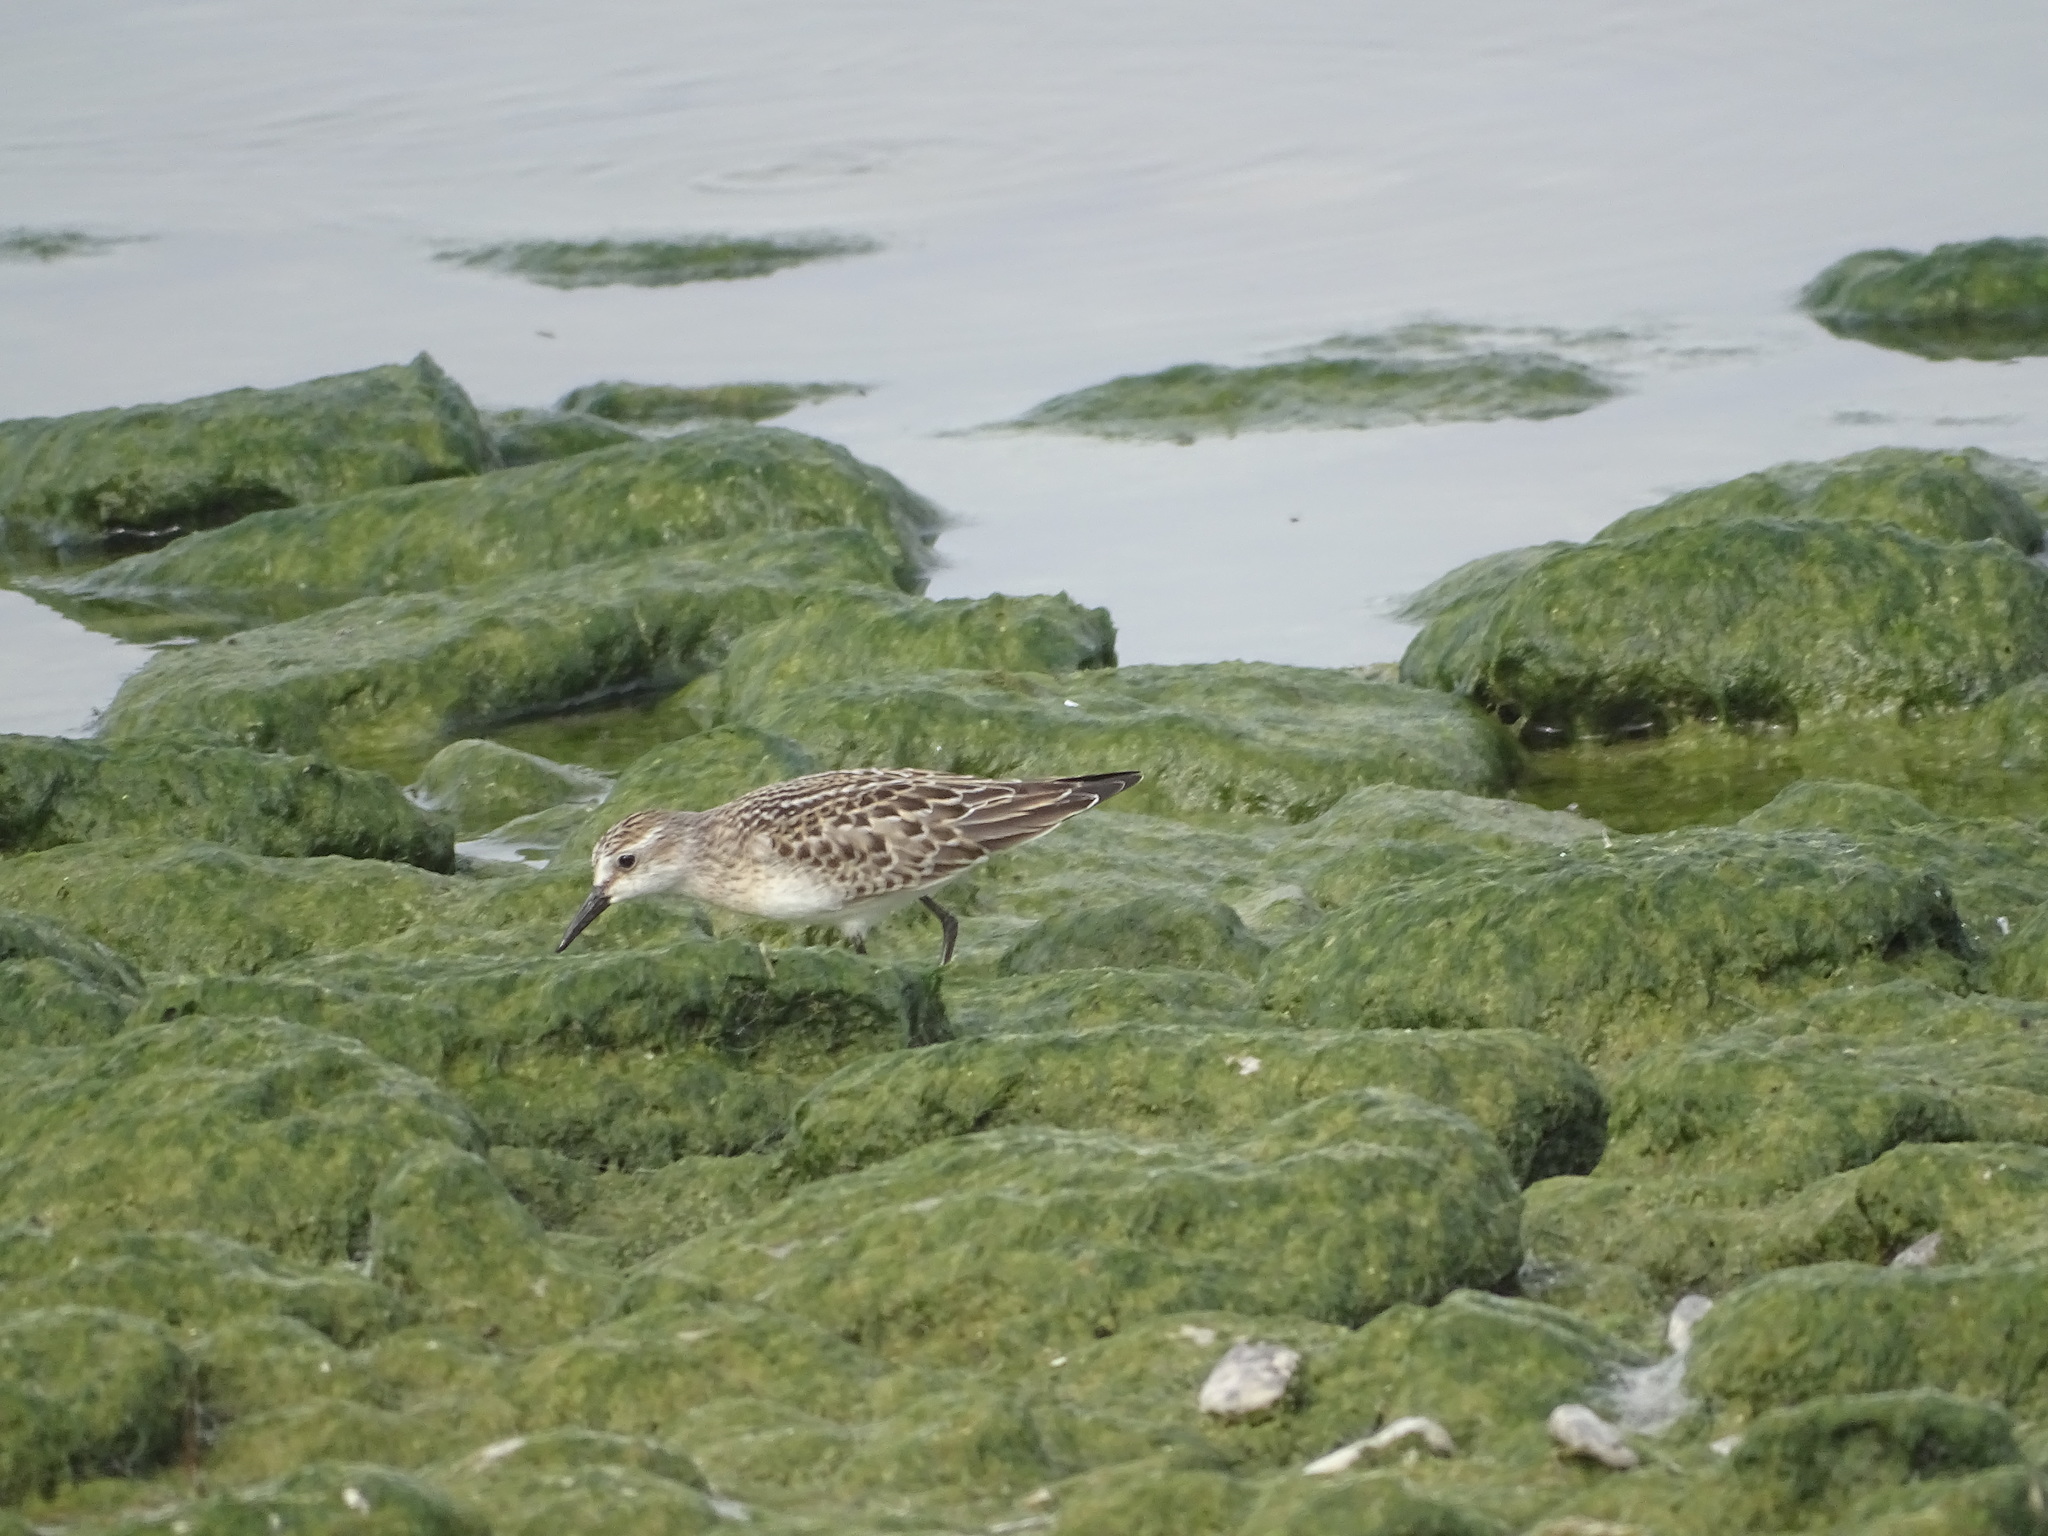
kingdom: Animalia
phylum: Chordata
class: Aves
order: Charadriiformes
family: Scolopacidae
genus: Calidris
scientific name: Calidris pusilla
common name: Semipalmated sandpiper
